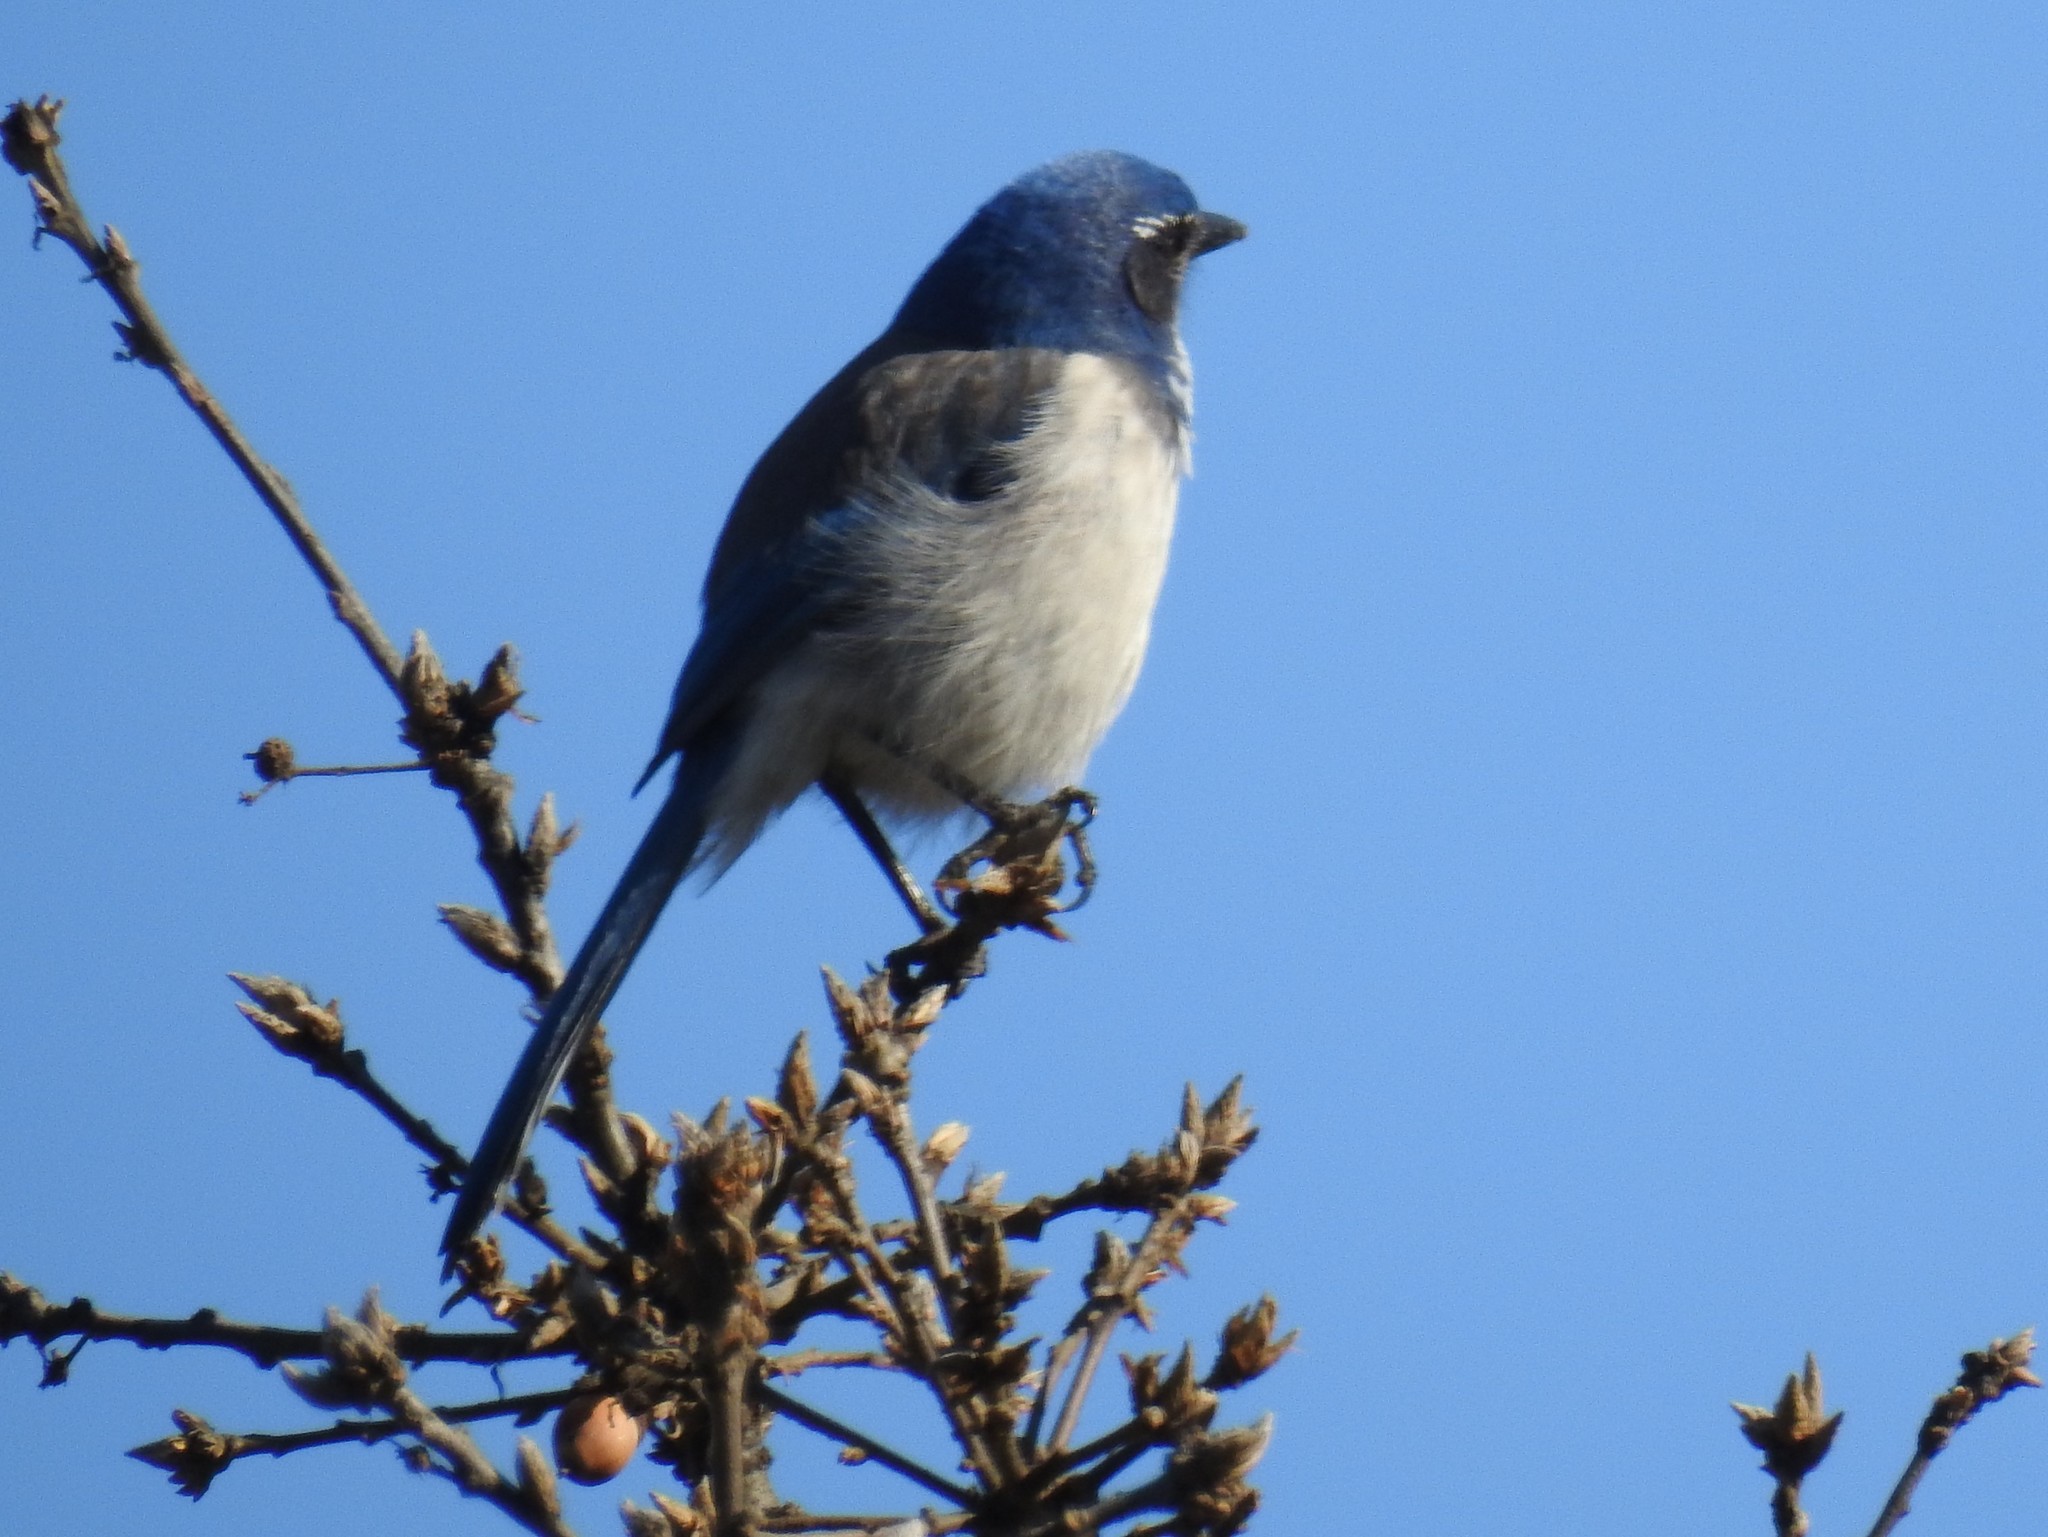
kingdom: Animalia
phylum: Chordata
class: Aves
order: Passeriformes
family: Corvidae
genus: Aphelocoma
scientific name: Aphelocoma californica
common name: California scrub-jay
